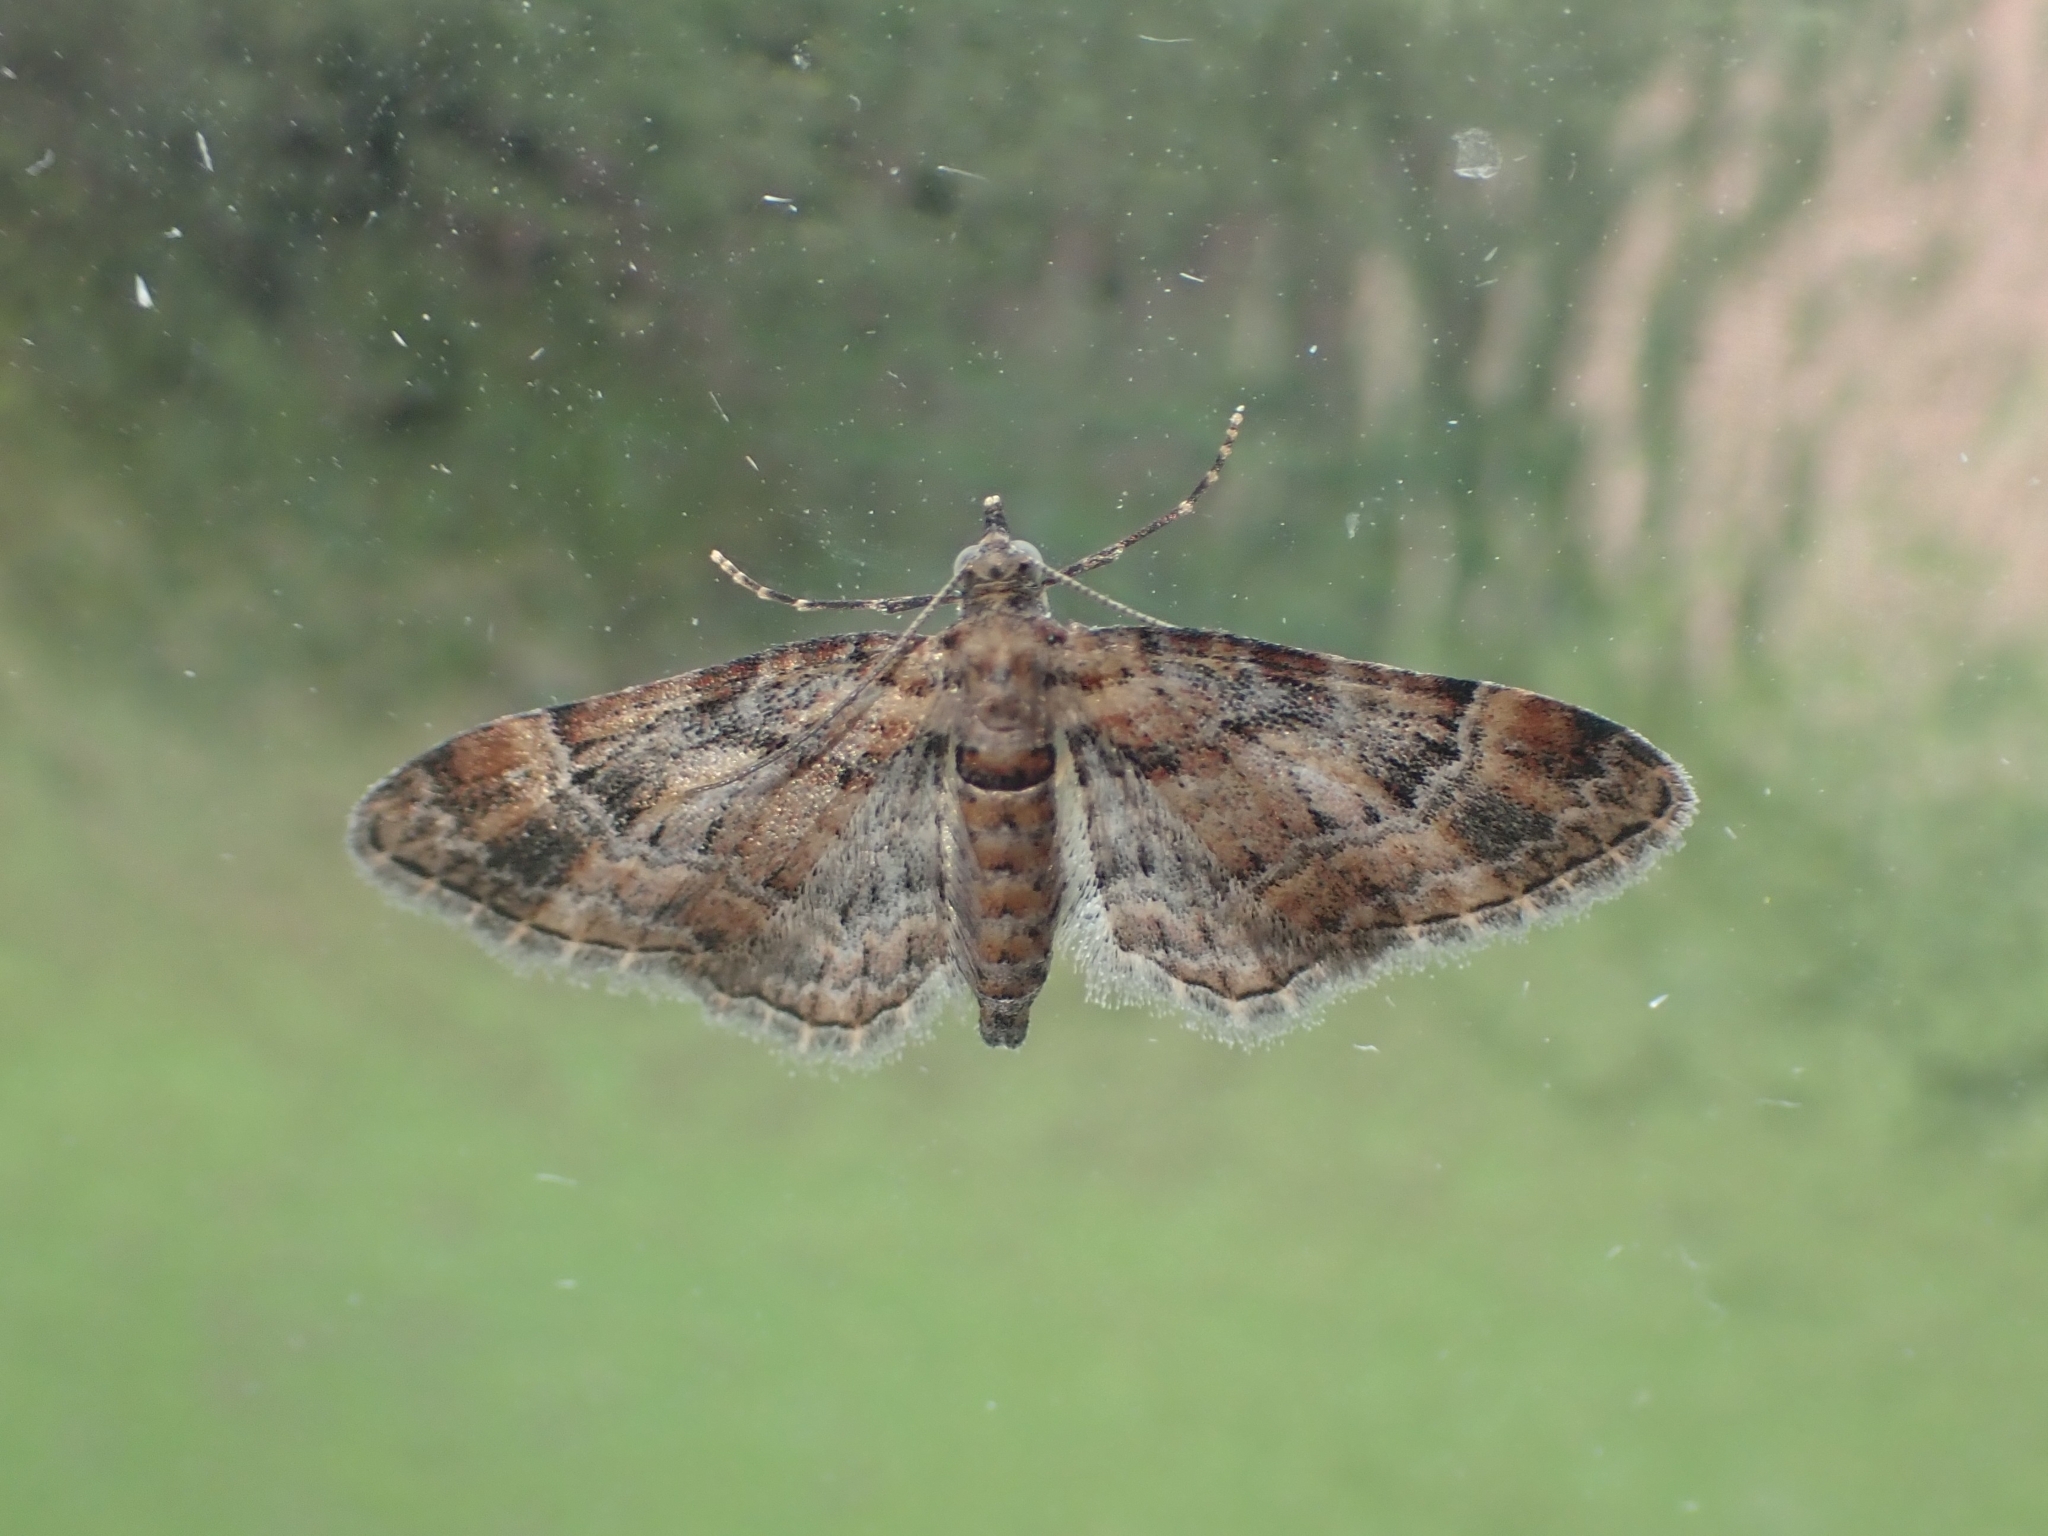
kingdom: Animalia
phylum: Arthropoda
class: Insecta
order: Lepidoptera
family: Geometridae
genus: Gymnoscelis
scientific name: Gymnoscelis rufifasciata
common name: Double-striped pug
